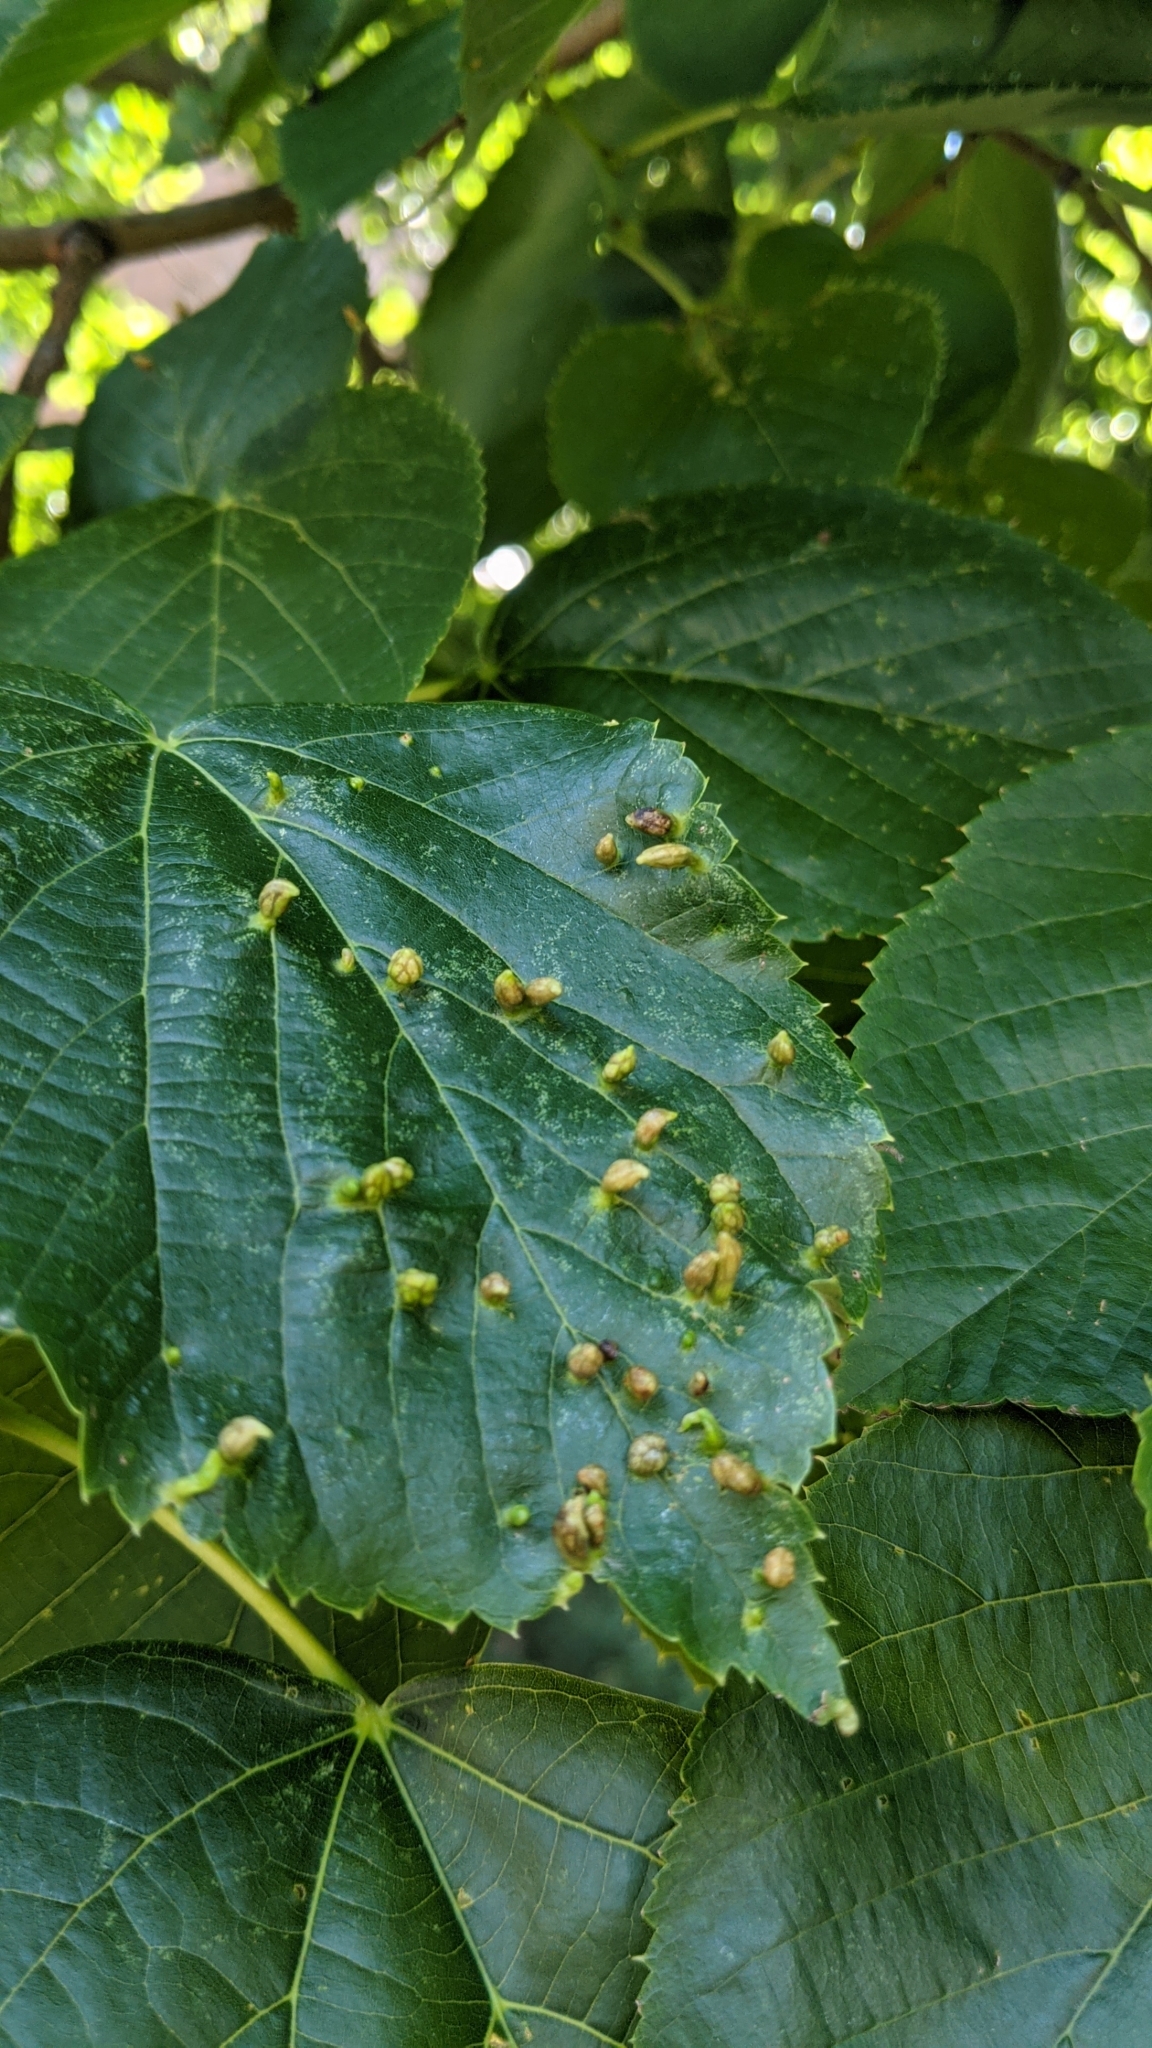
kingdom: Animalia
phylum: Arthropoda
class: Arachnida
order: Trombidiformes
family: Phytoptidae
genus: Phytoptus
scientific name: Phytoptus abnormis
